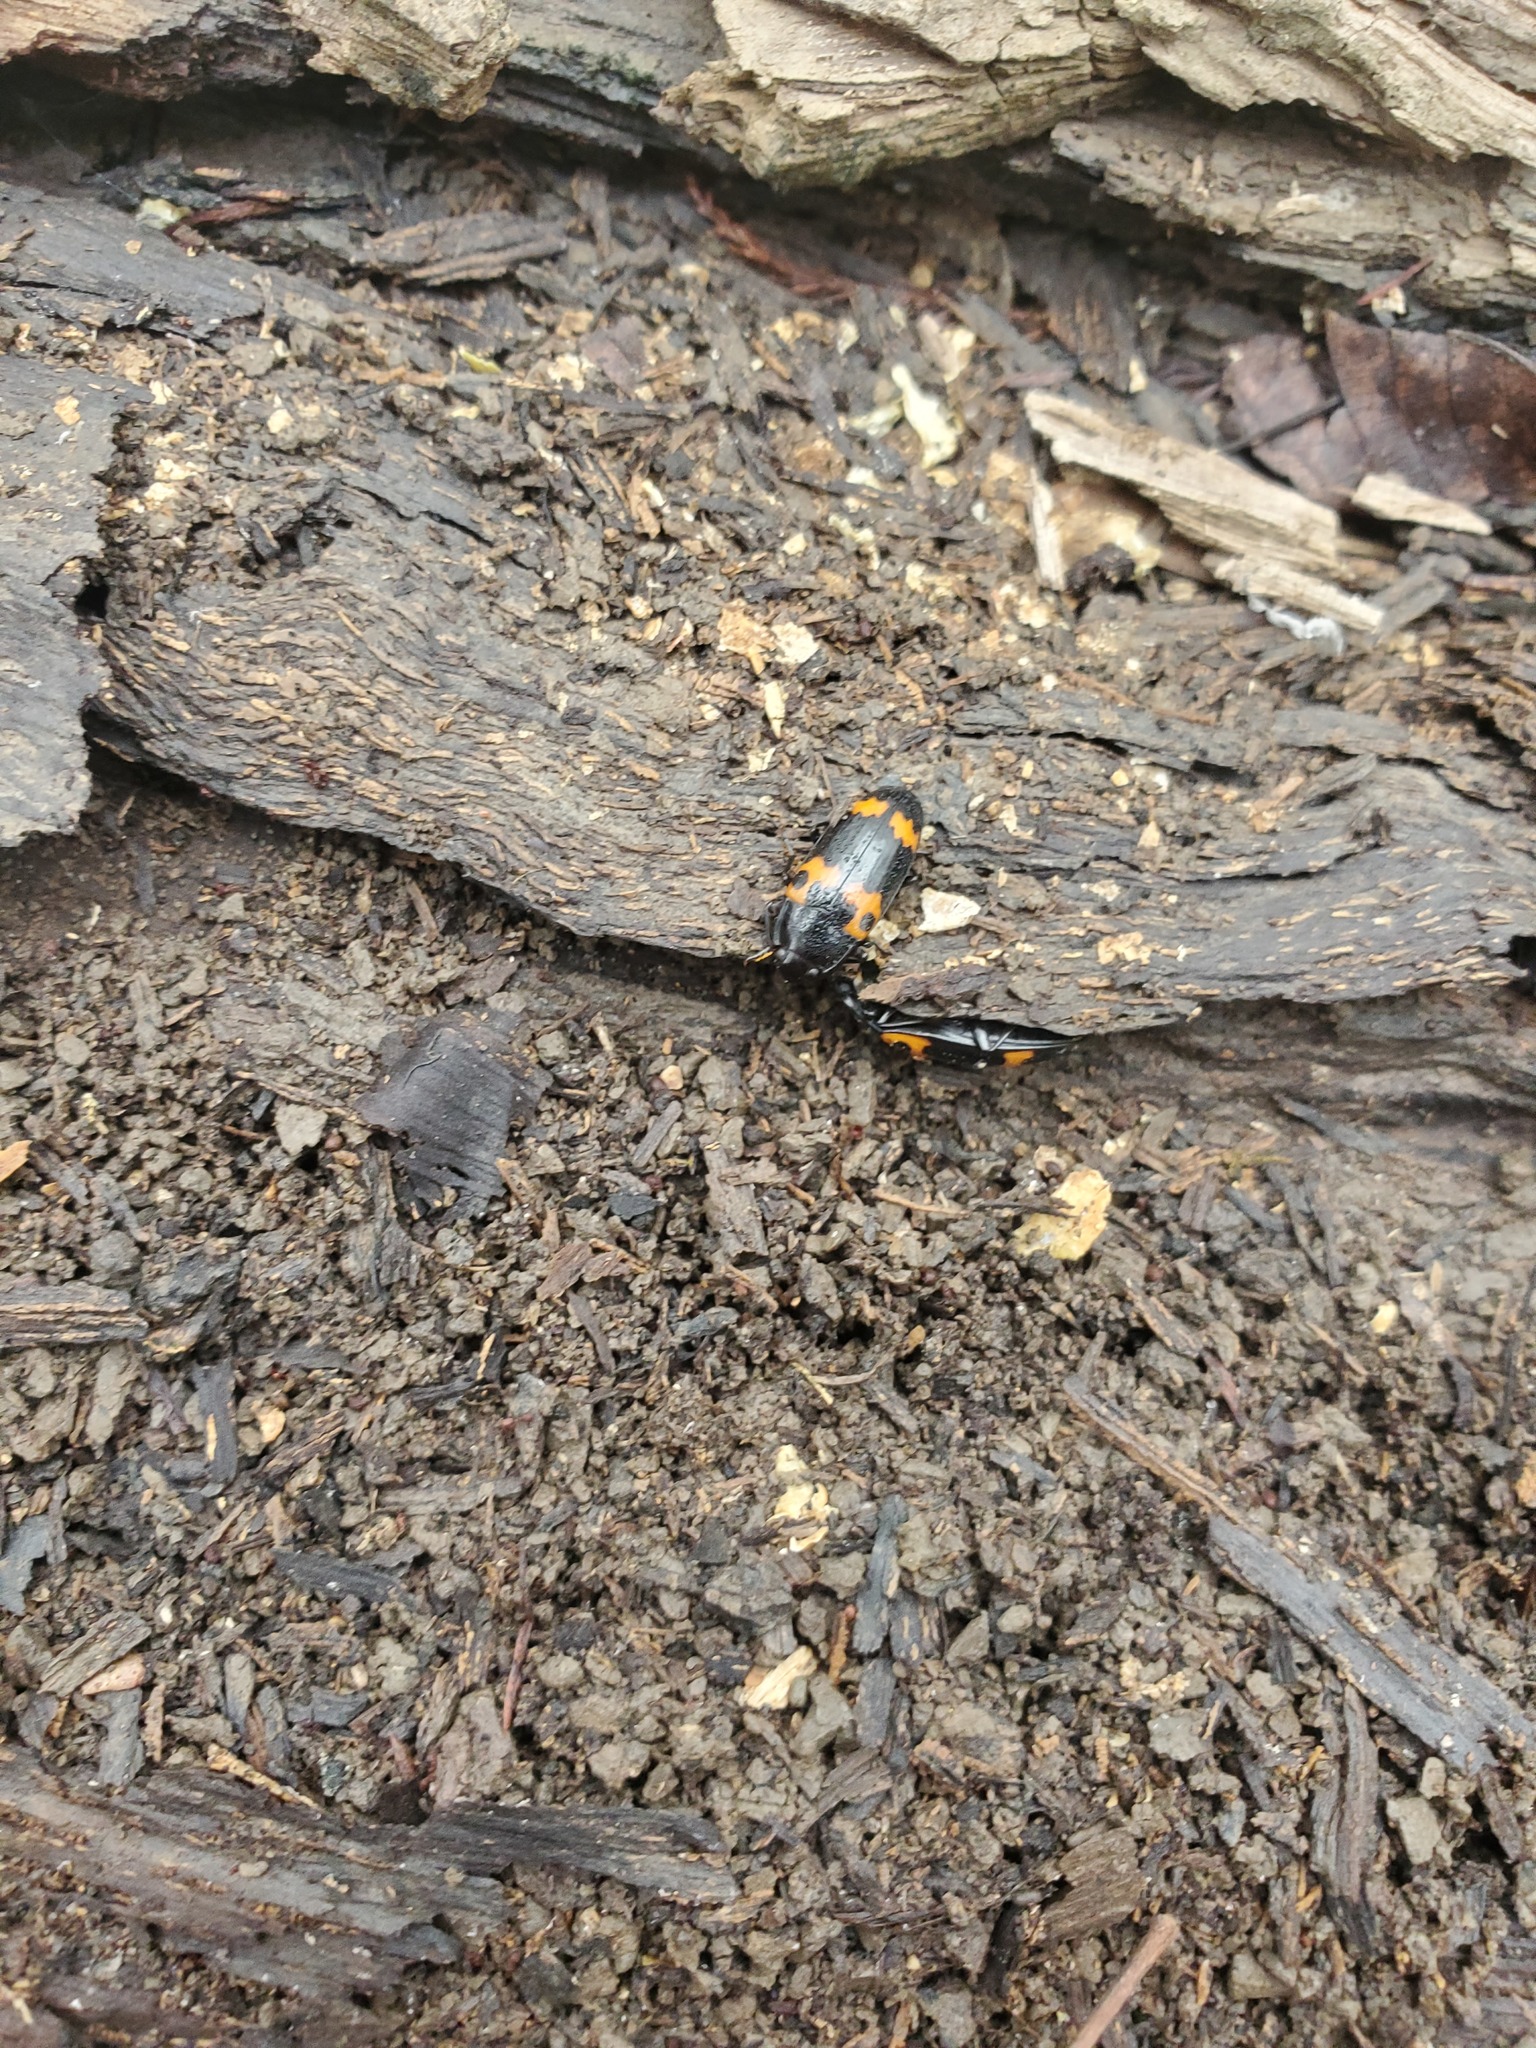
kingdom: Animalia
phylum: Arthropoda
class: Insecta
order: Coleoptera
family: Erotylidae
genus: Megalodacne
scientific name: Megalodacne fasciata
